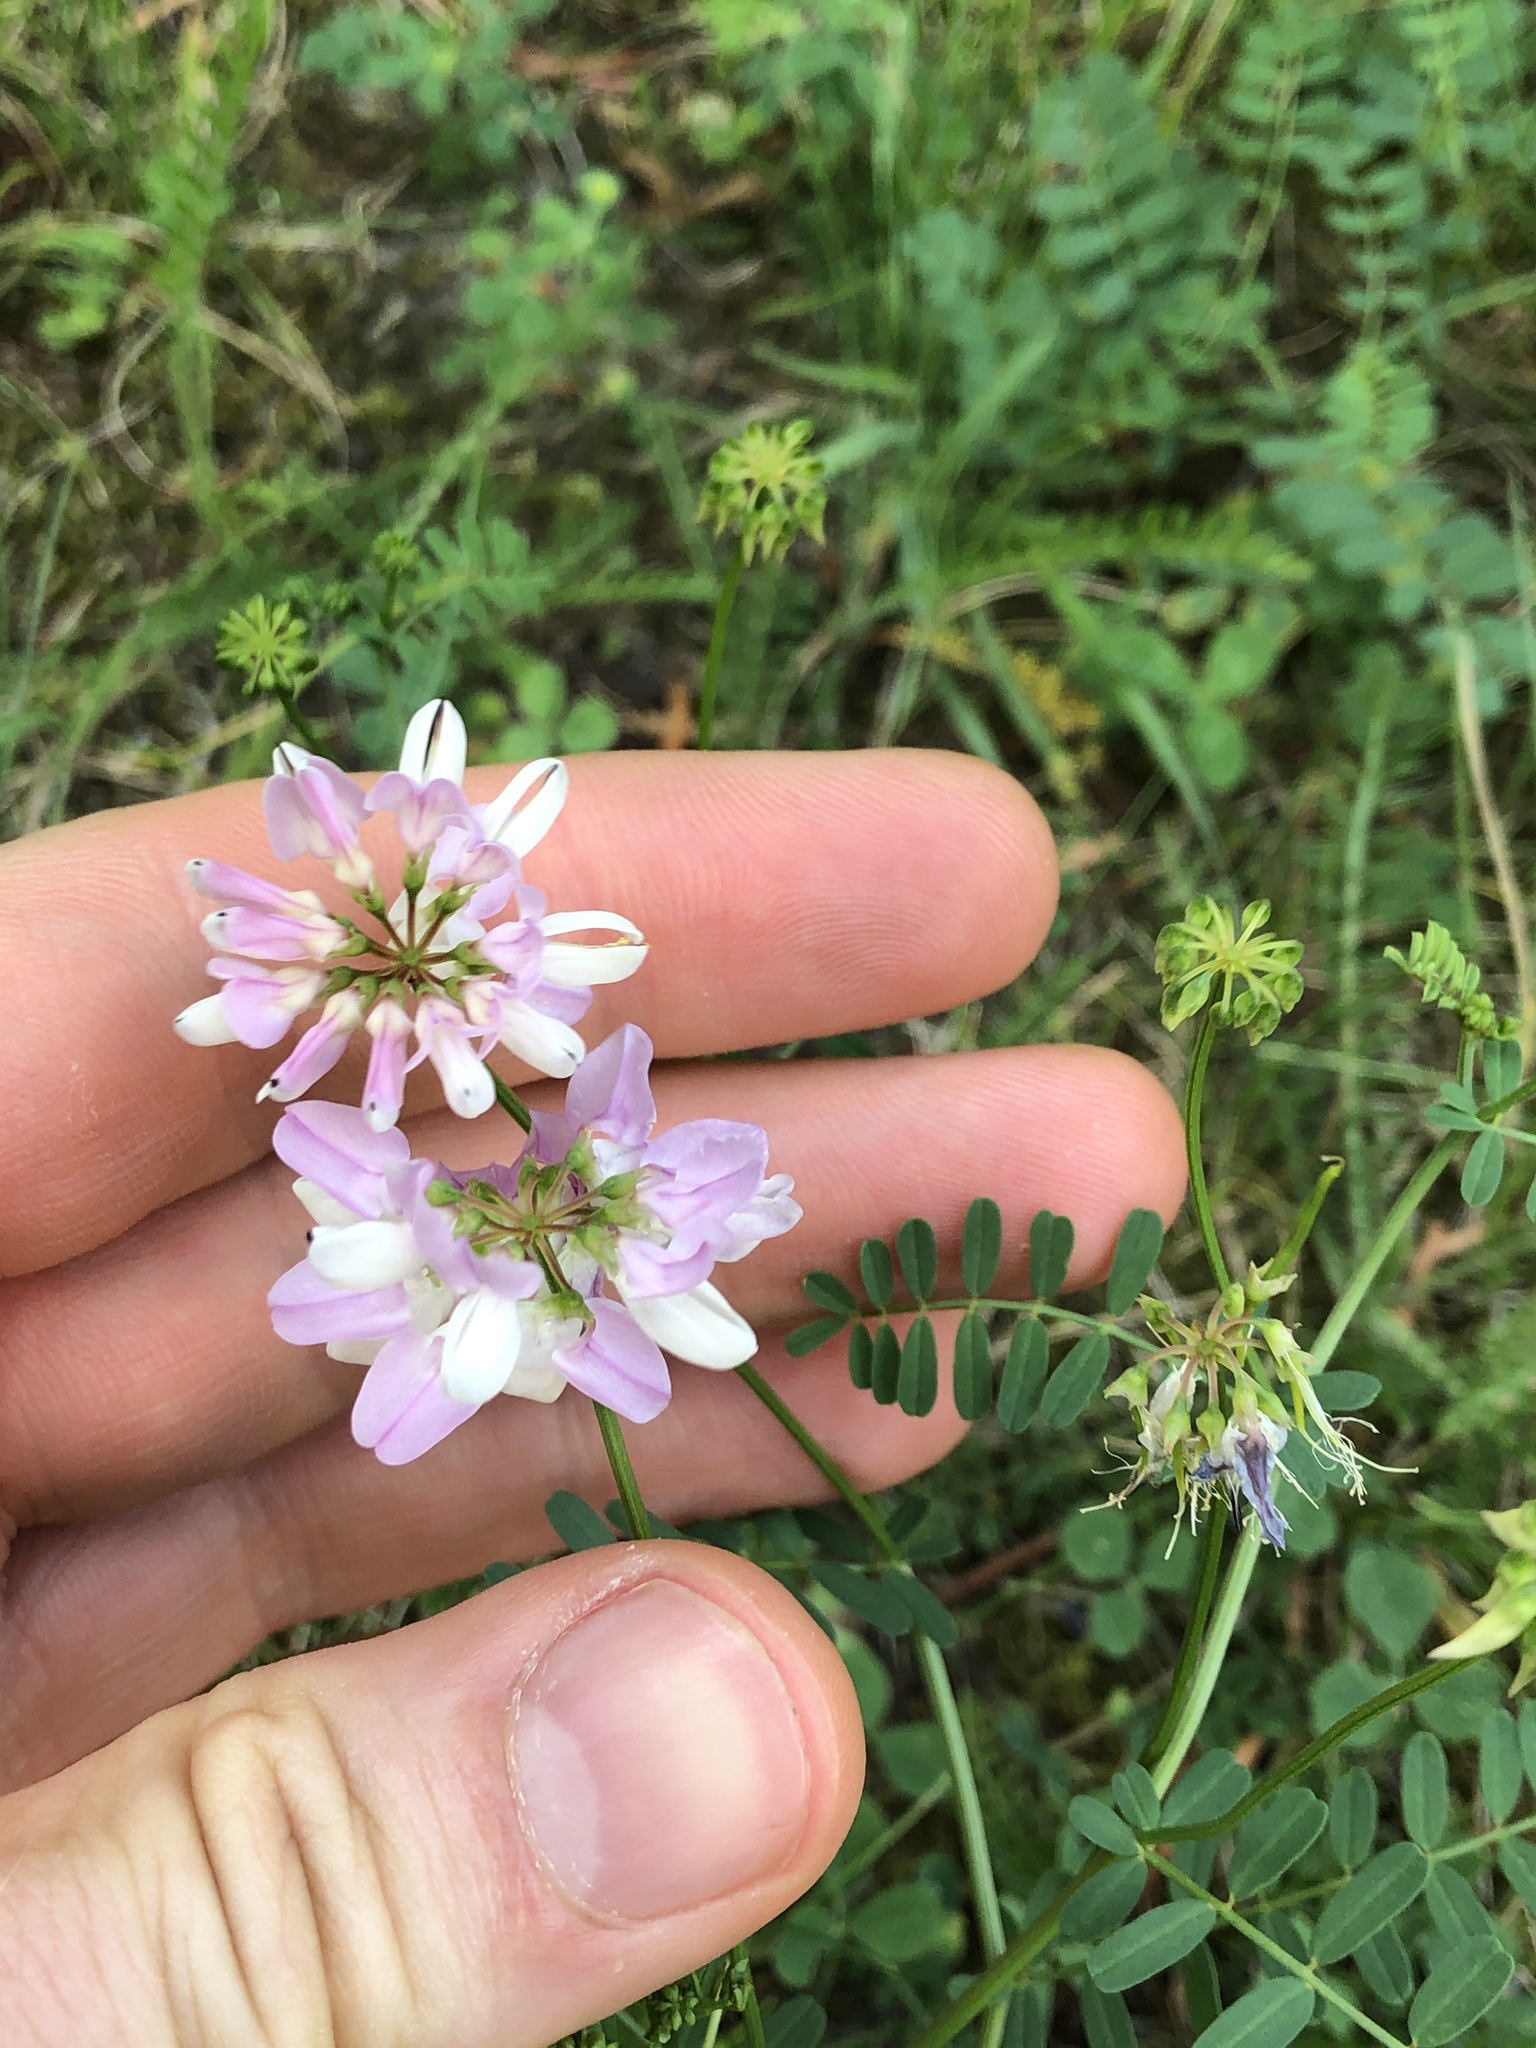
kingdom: Plantae
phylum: Tracheophyta
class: Magnoliopsida
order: Fabales
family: Fabaceae
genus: Coronilla
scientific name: Coronilla varia
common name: Crownvetch
